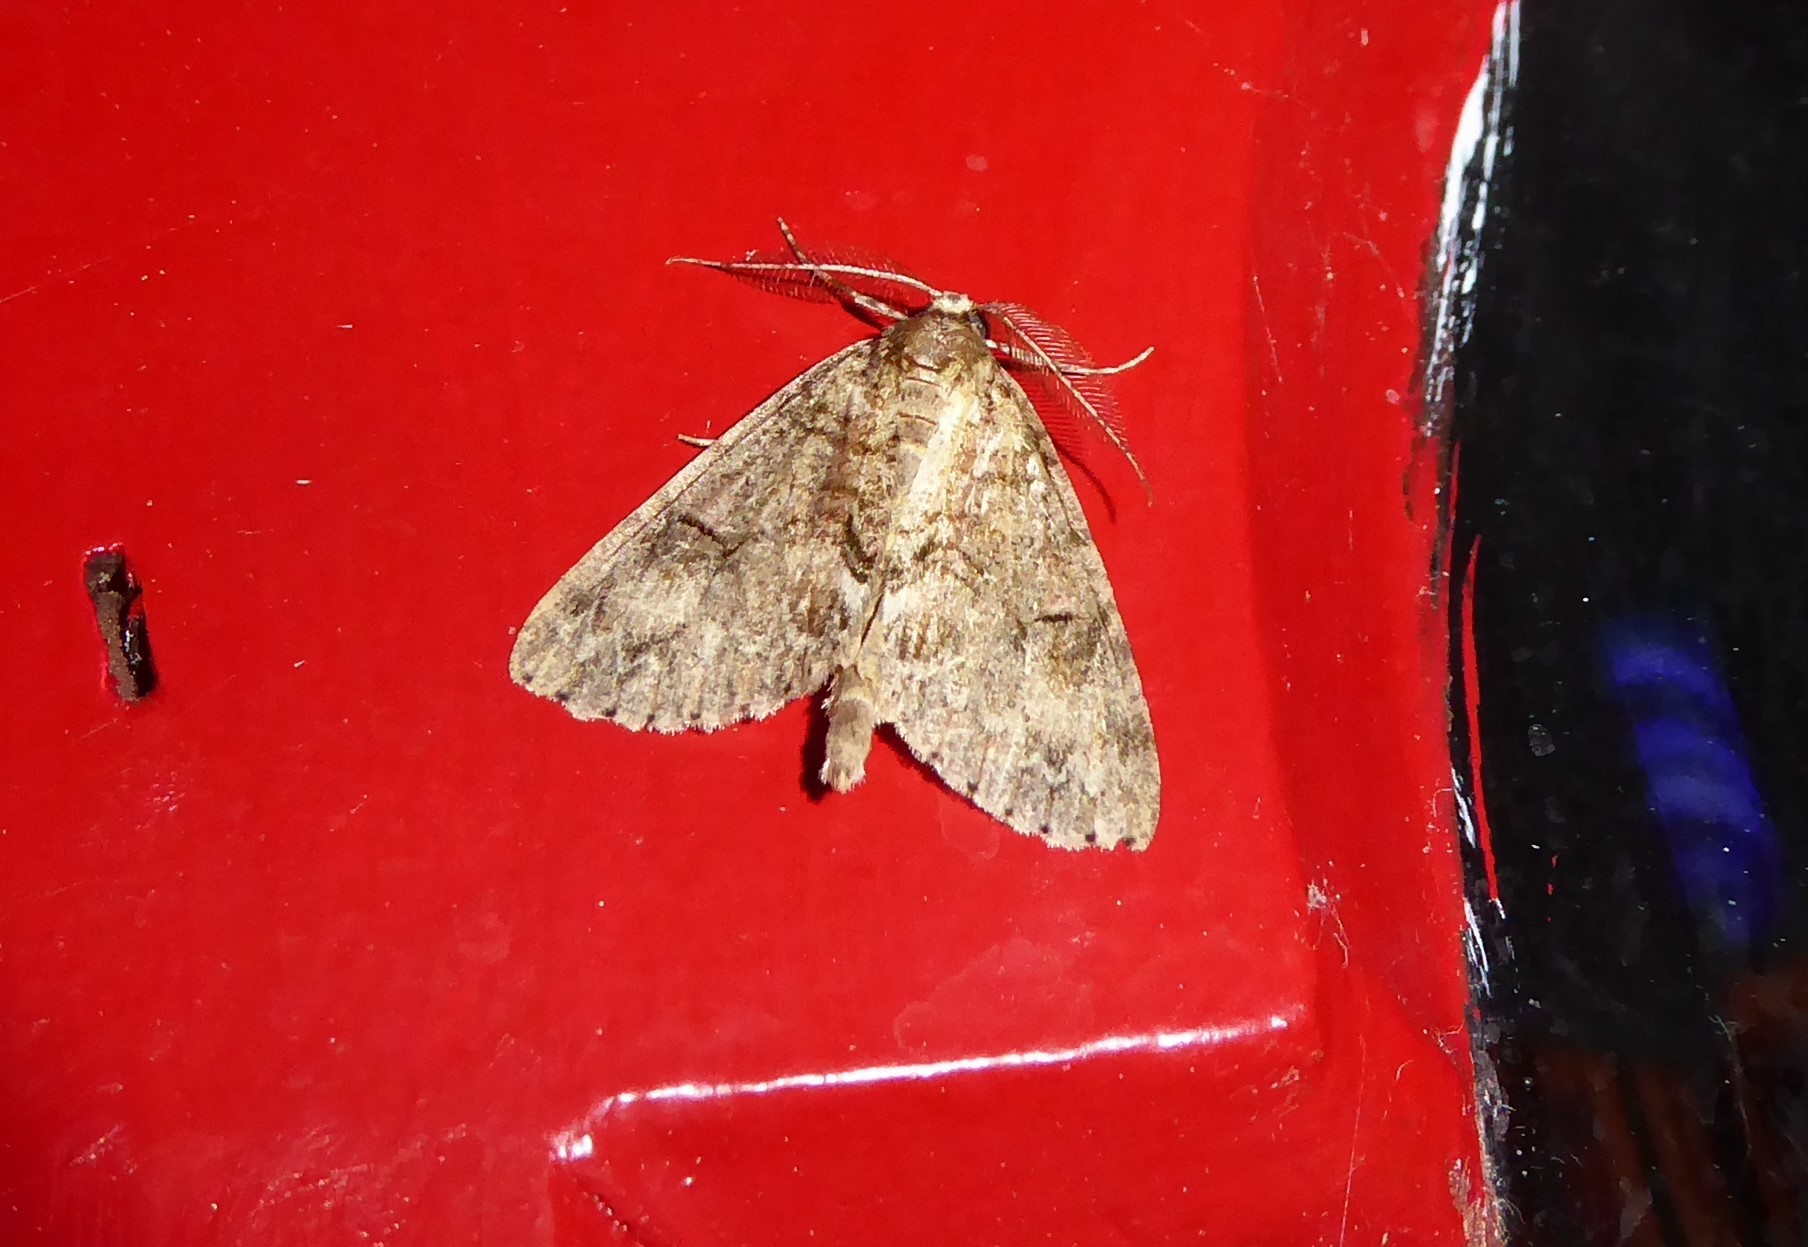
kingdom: Animalia
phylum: Arthropoda
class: Insecta
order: Lepidoptera
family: Geometridae
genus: Pseudocoremia
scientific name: Pseudocoremia suavis
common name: Common forest looper
